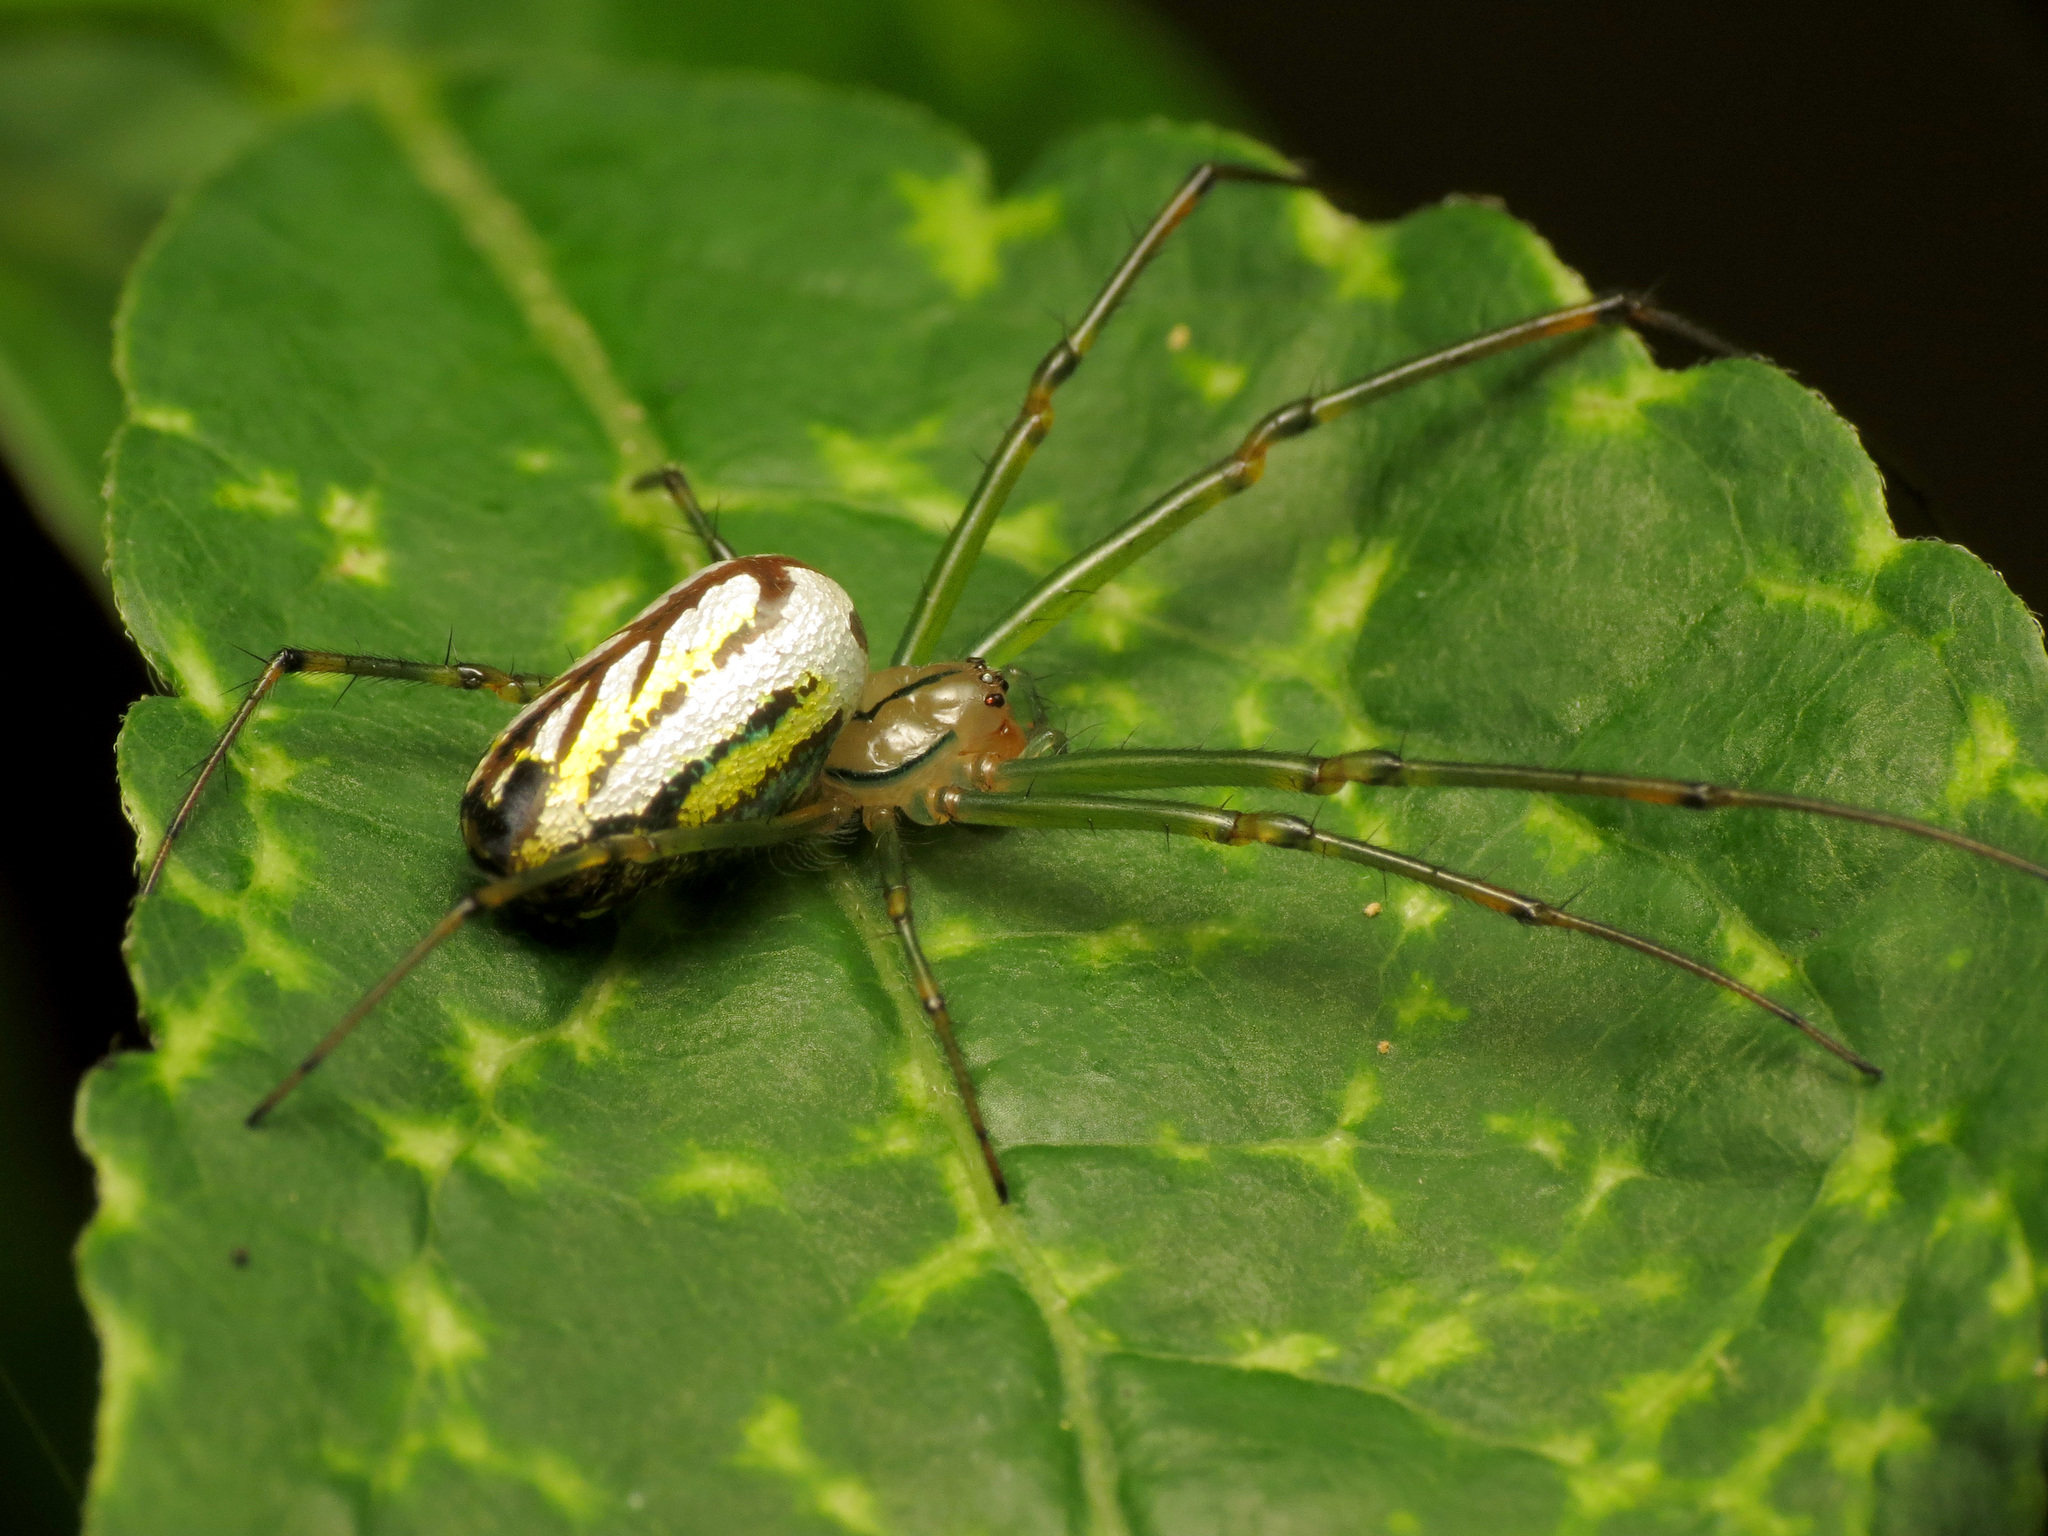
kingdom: Animalia
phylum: Arthropoda
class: Arachnida
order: Araneae
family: Tetragnathidae
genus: Leucauge
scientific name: Leucauge venusta
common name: Longjawed orb weavers
